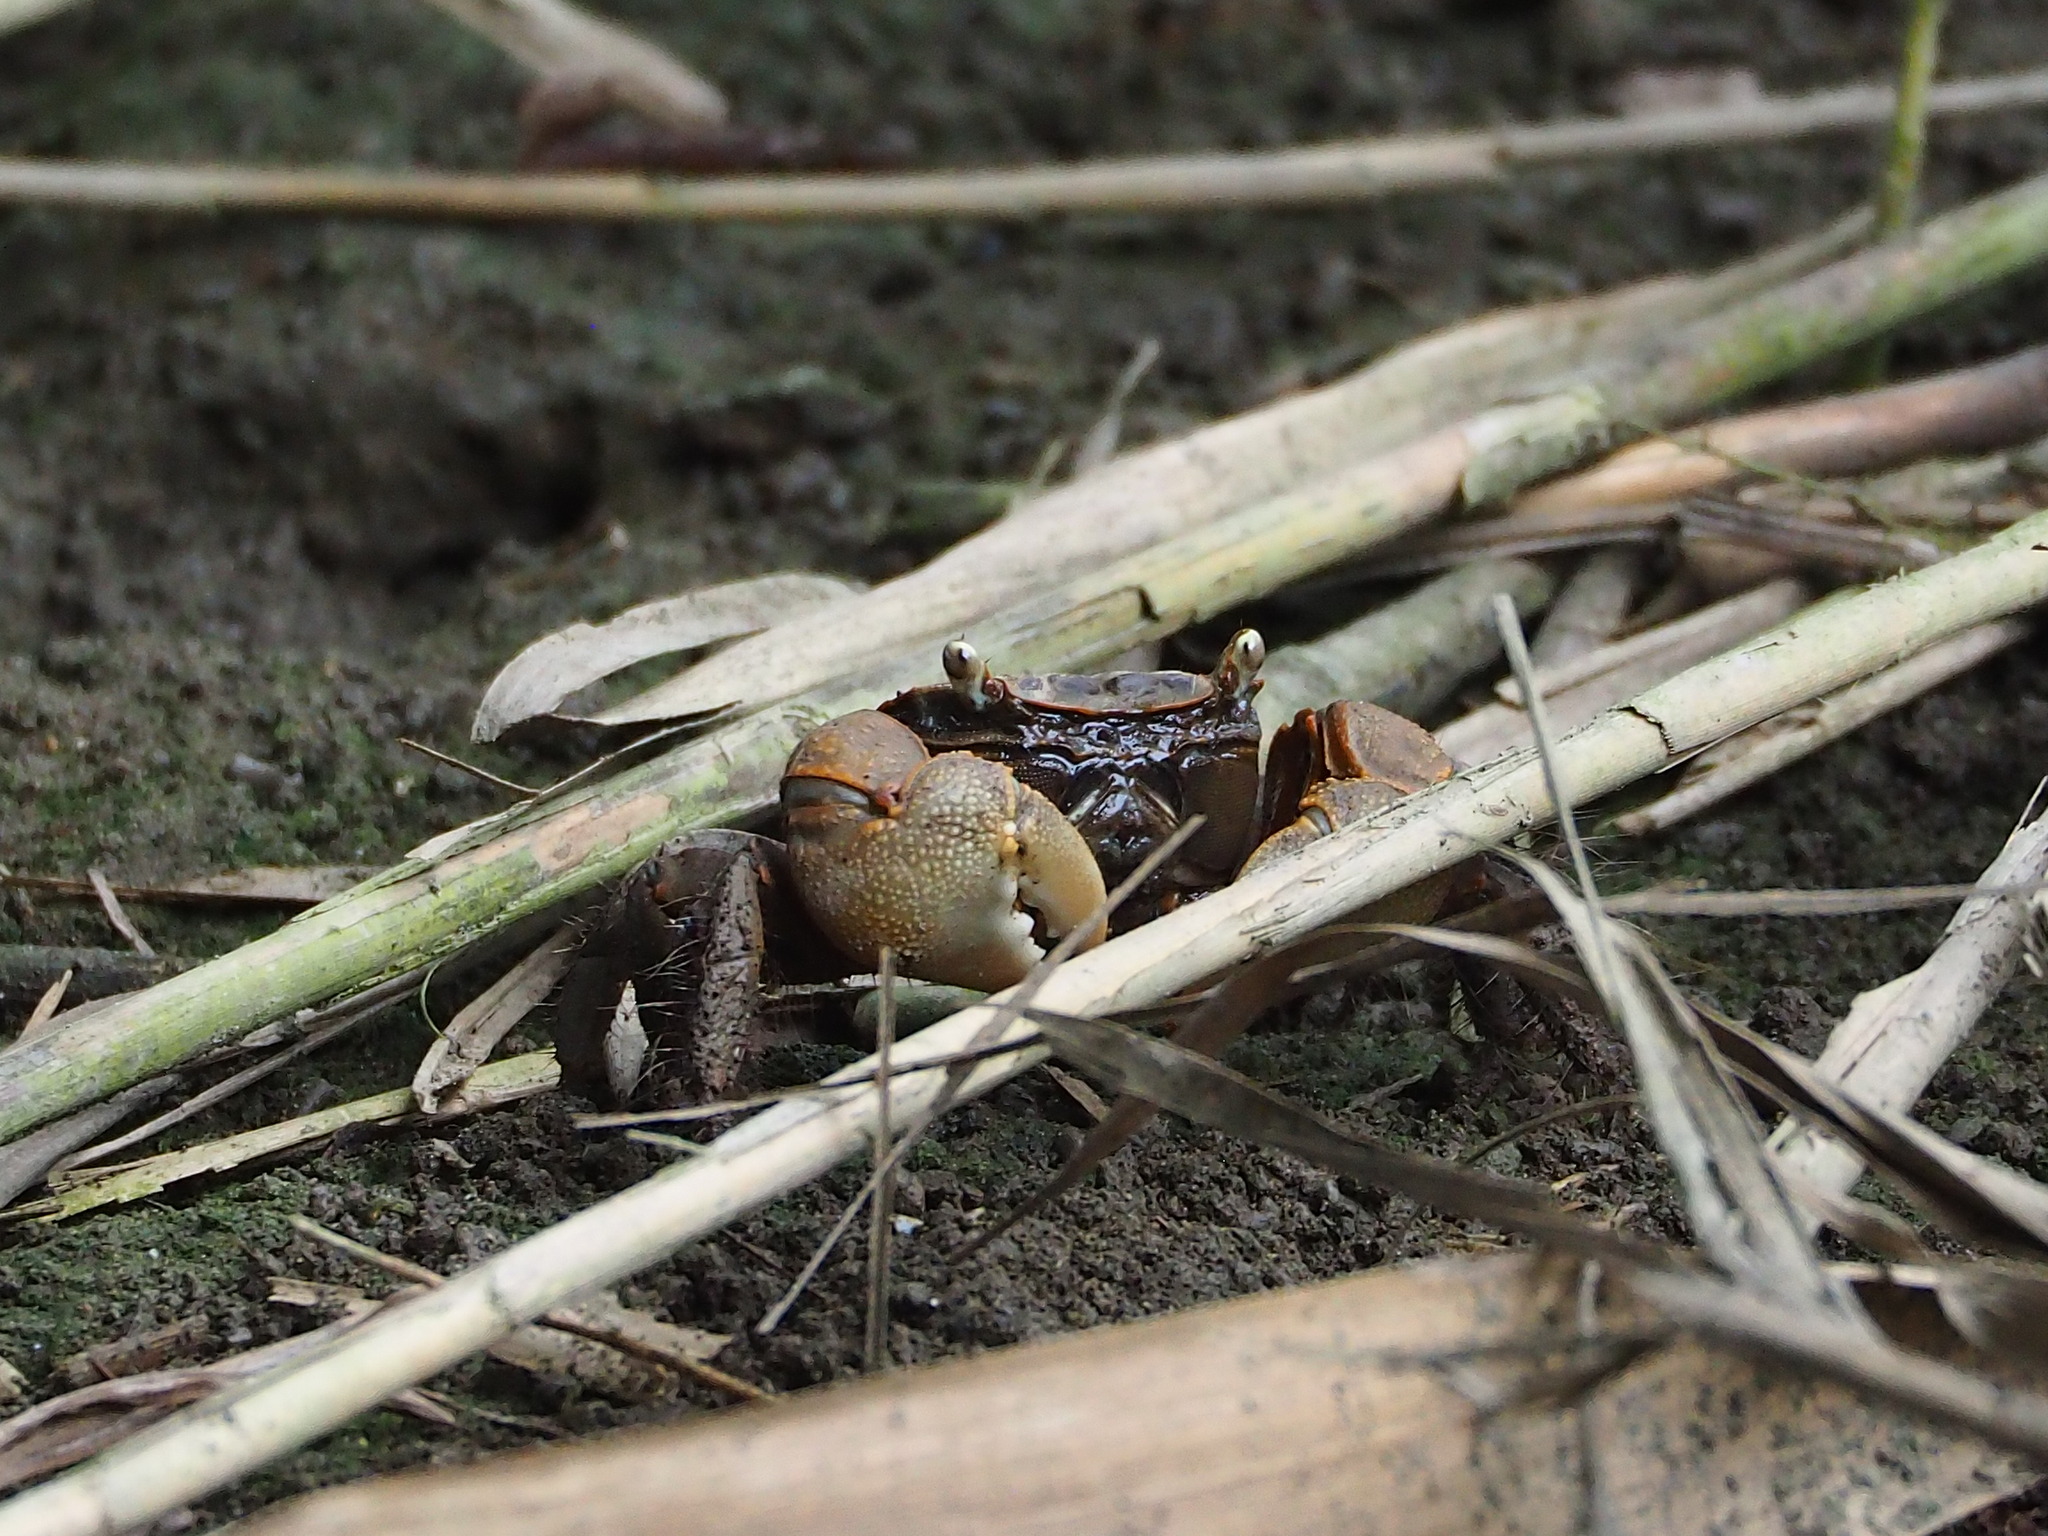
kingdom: Animalia
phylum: Arthropoda
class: Malacostraca
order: Decapoda
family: Sesarmidae
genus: Orisarma
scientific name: Orisarma dehaani
